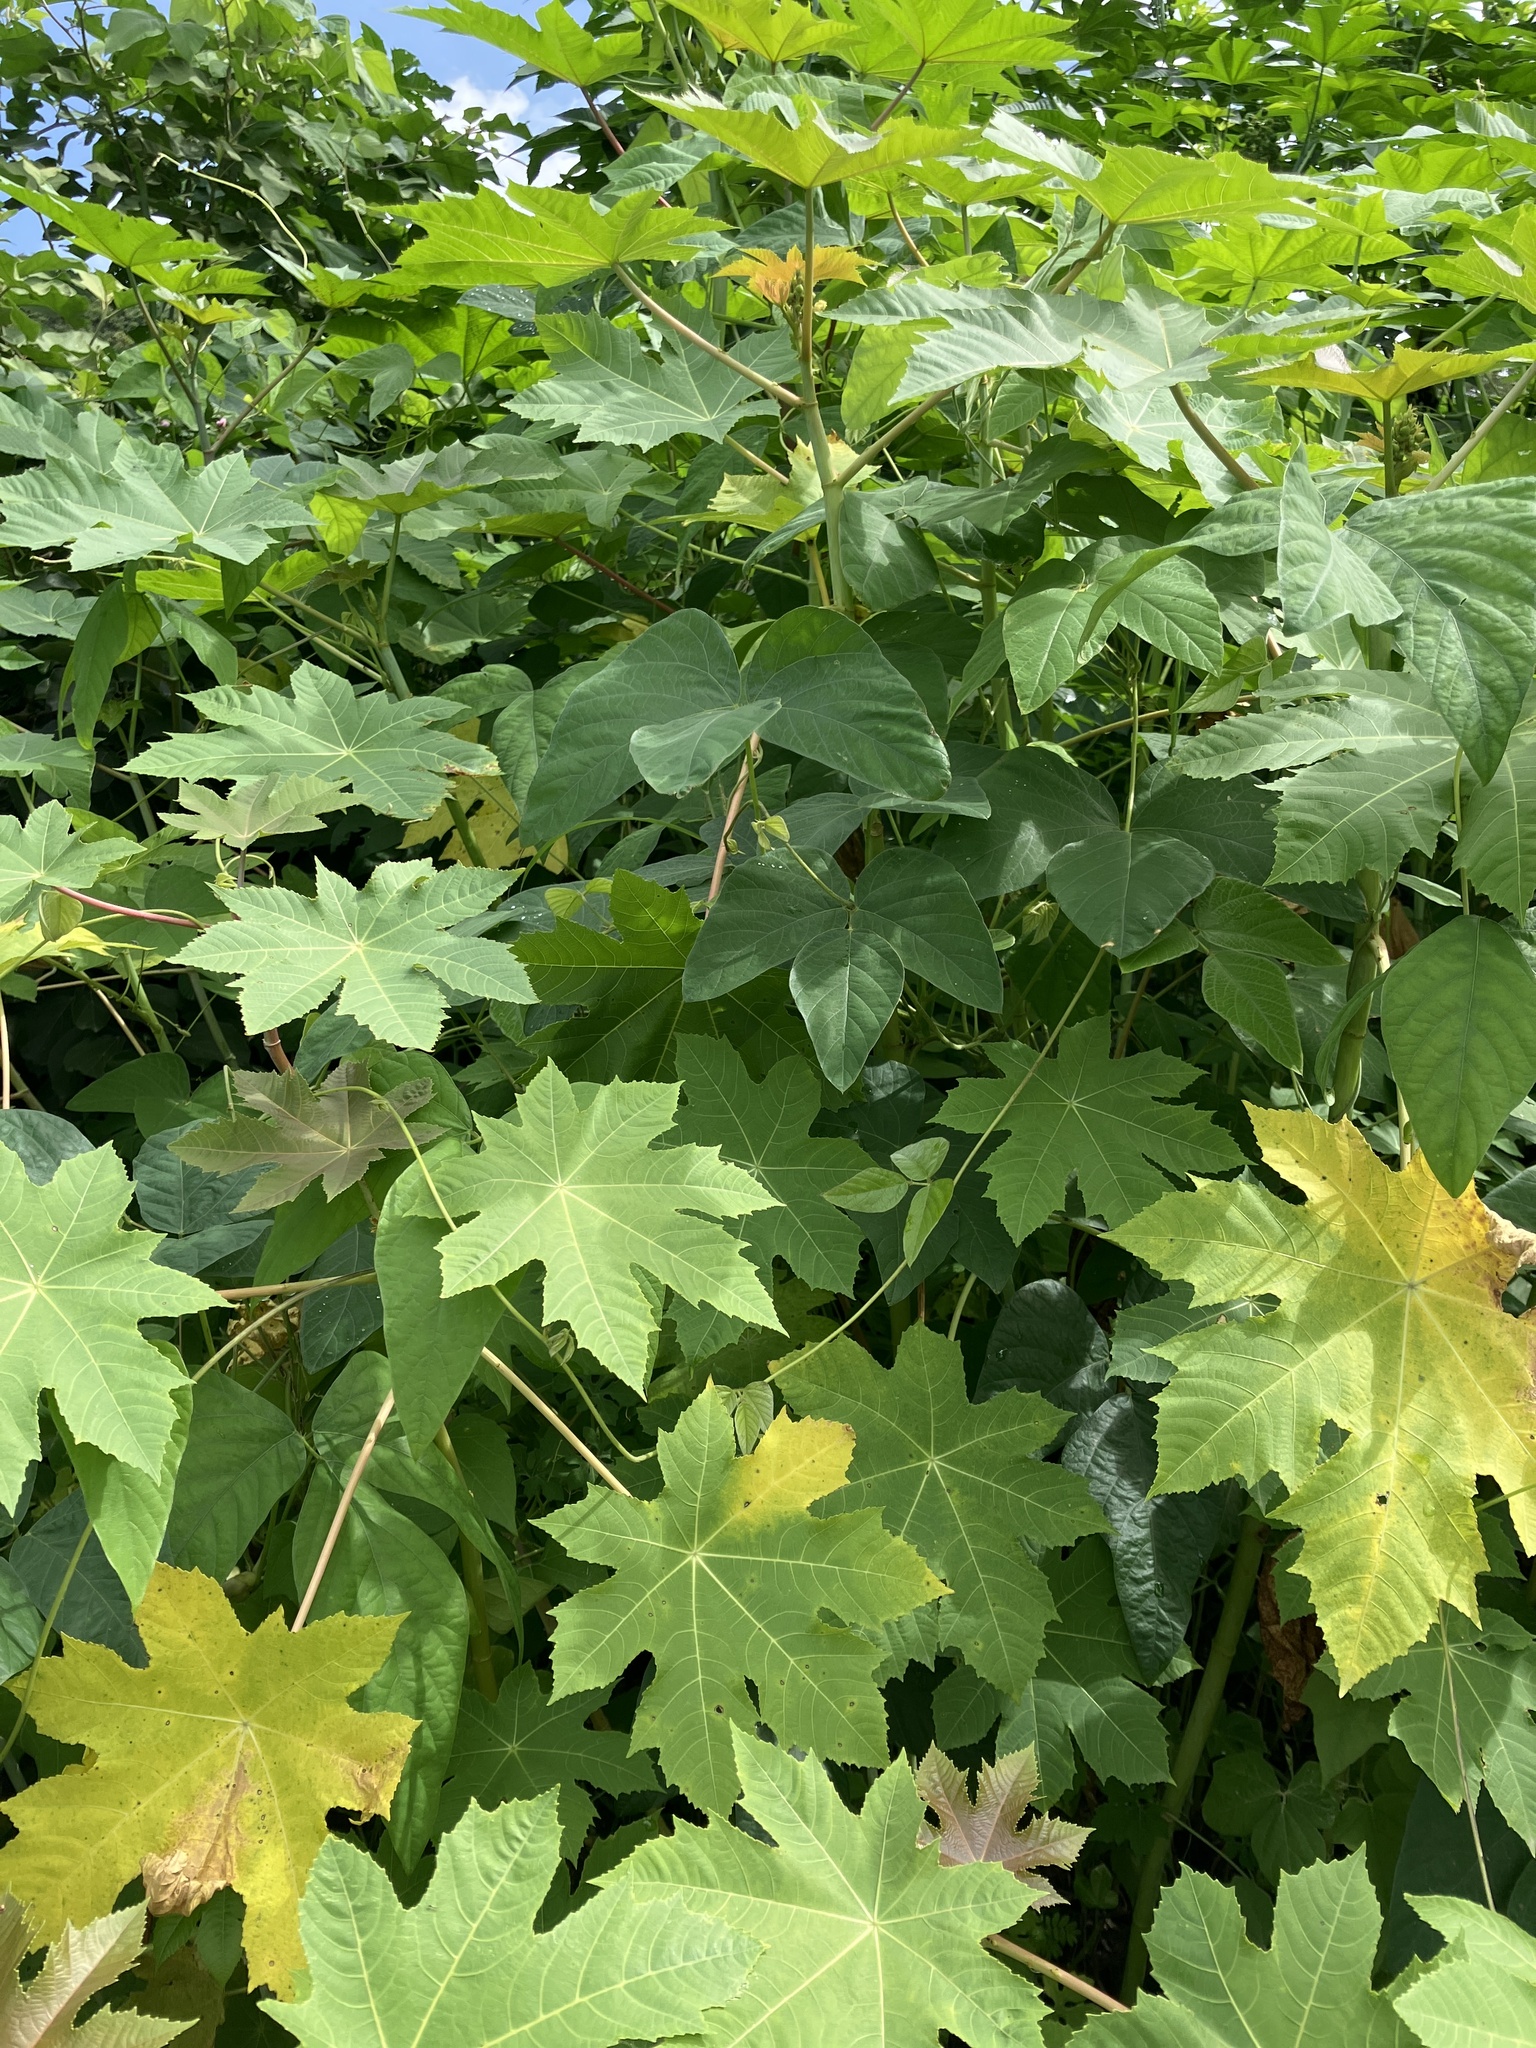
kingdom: Plantae
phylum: Tracheophyta
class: Magnoliopsida
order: Malpighiales
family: Euphorbiaceae
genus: Ricinus
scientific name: Ricinus communis
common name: Castor-oil-plant
